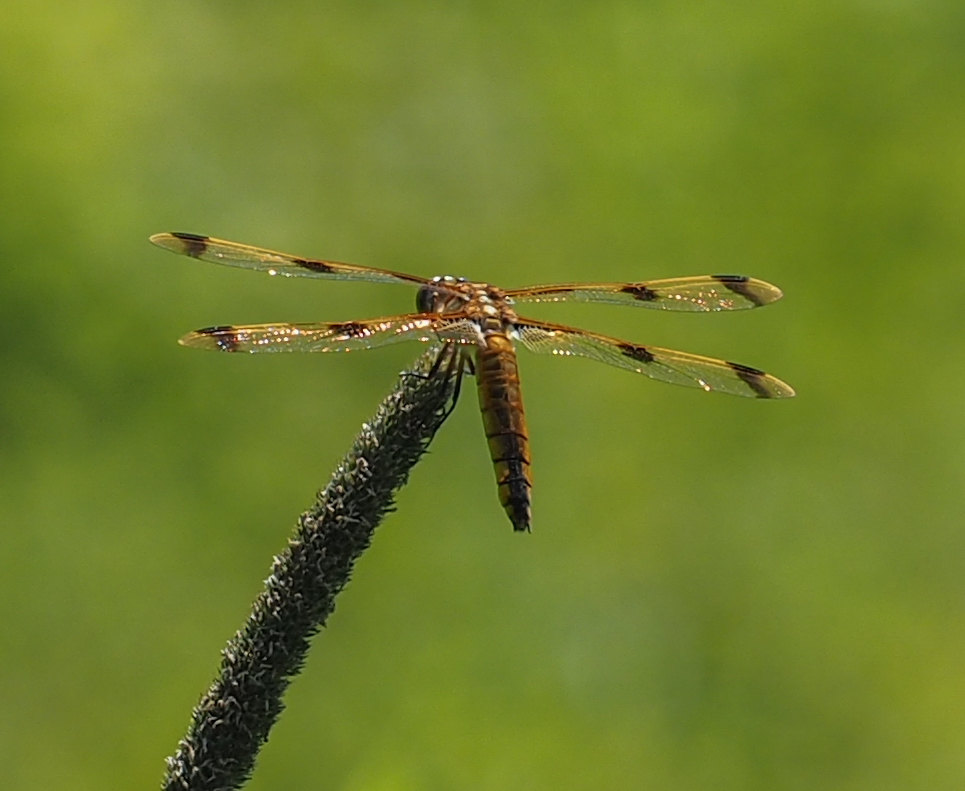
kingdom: Animalia
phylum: Arthropoda
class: Insecta
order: Odonata
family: Libellulidae
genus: Libellula
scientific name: Libellula semifasciata
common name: Painted skimmer
